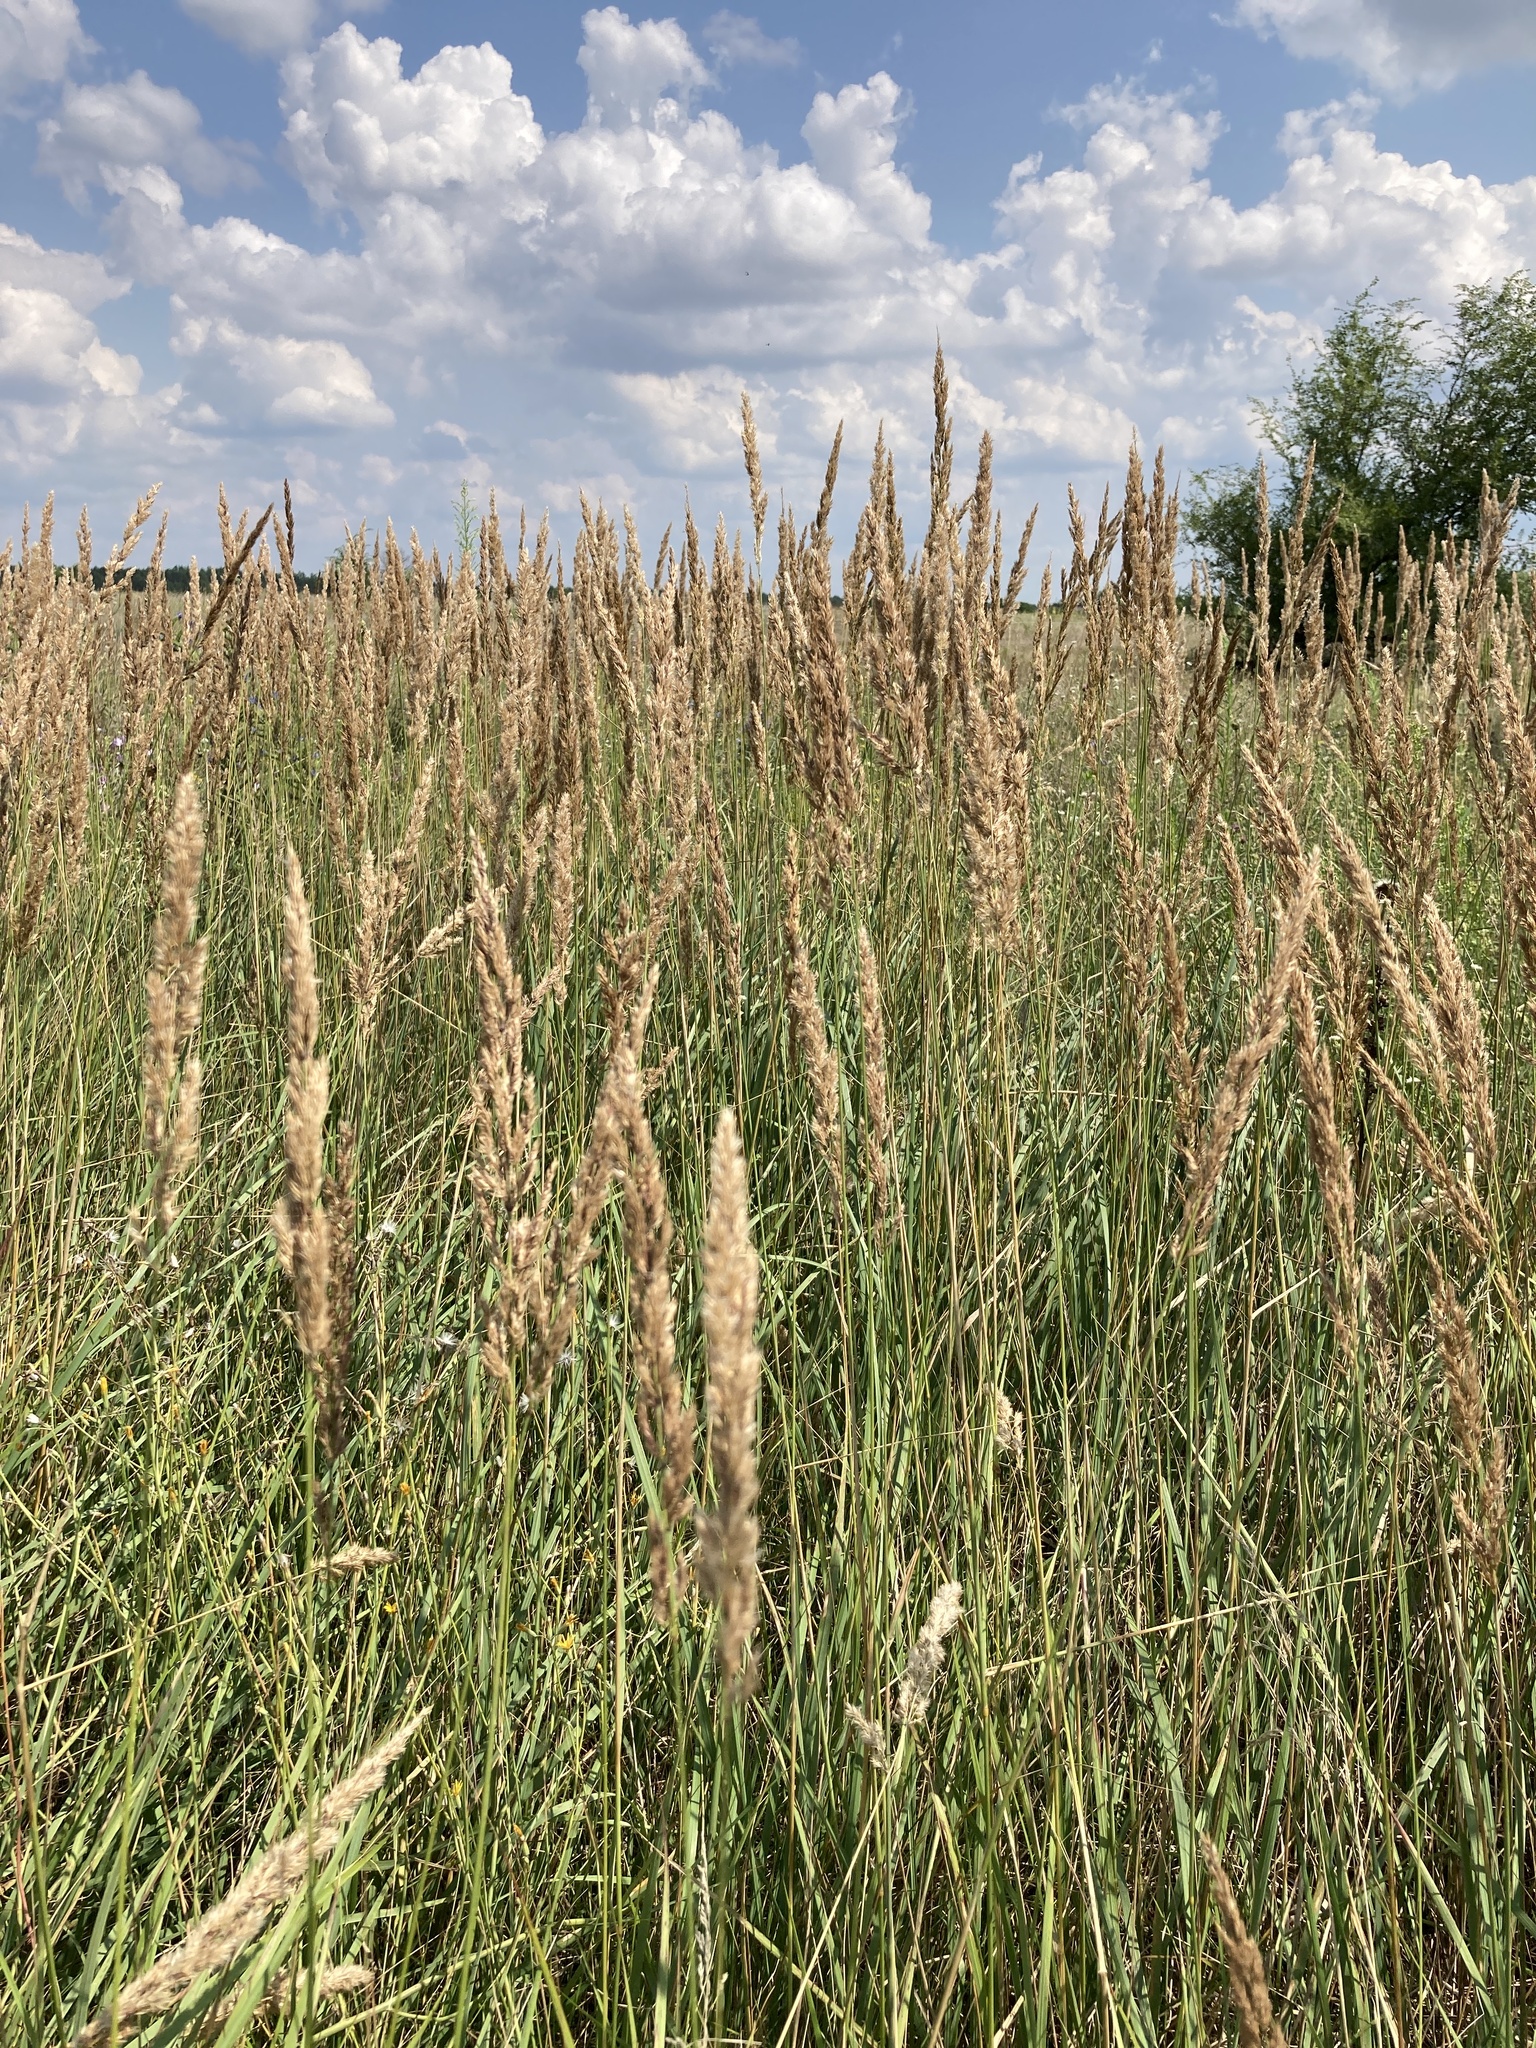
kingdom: Plantae
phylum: Tracheophyta
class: Liliopsida
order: Poales
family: Poaceae
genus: Calamagrostis
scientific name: Calamagrostis epigejos
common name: Wood small-reed
